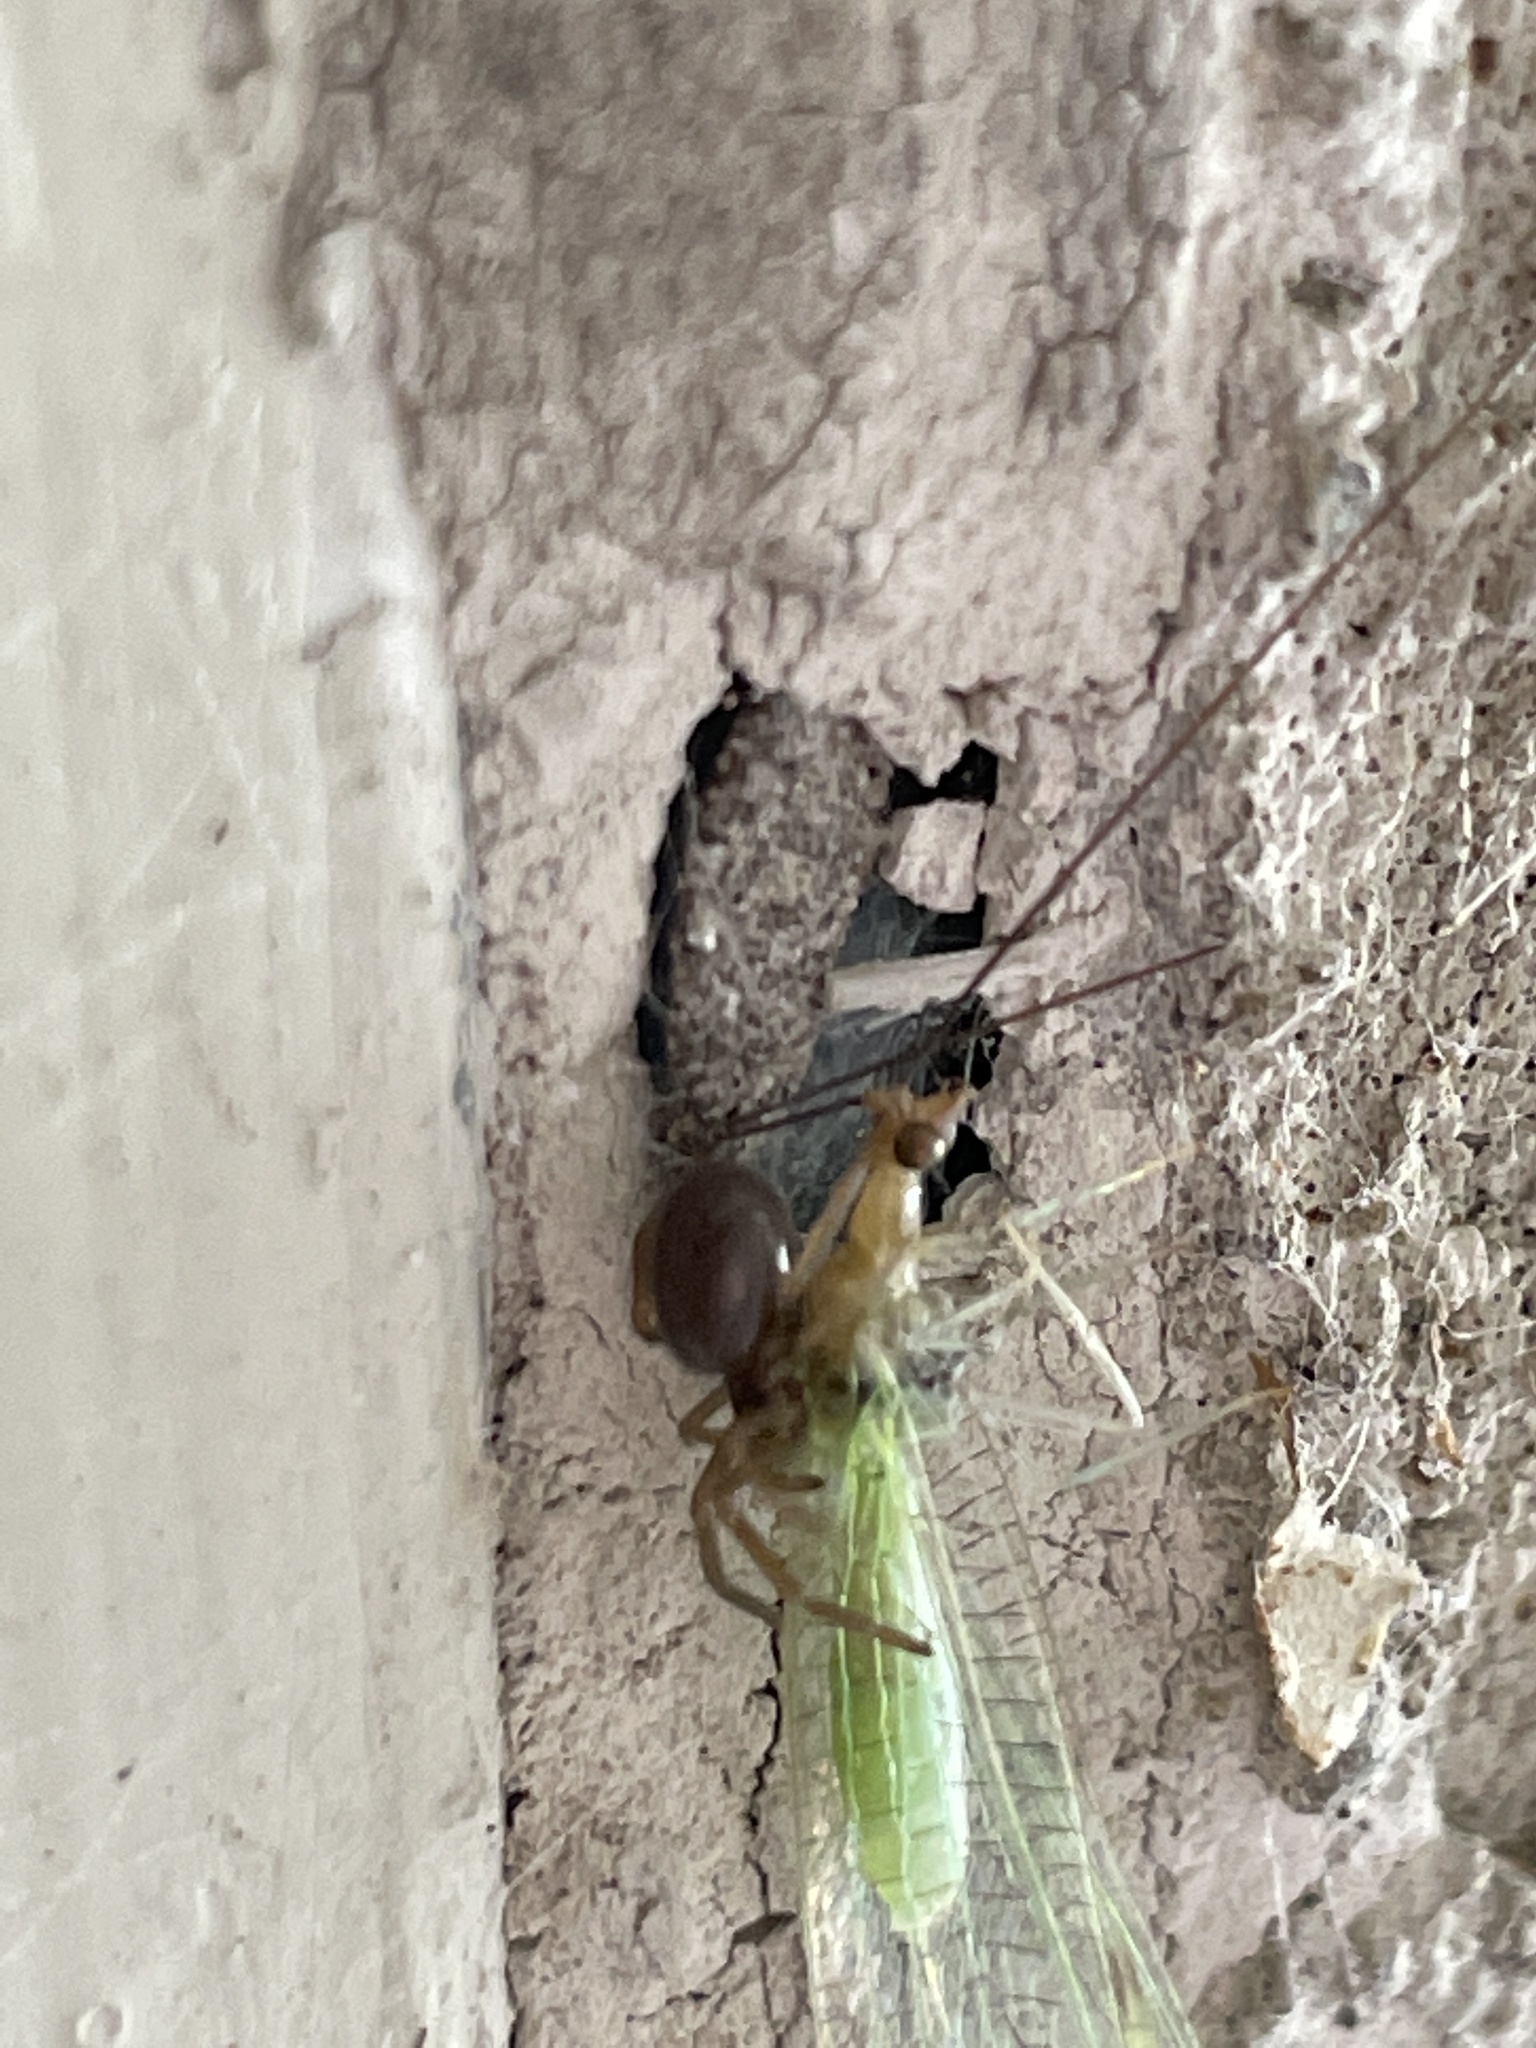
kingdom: Animalia
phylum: Arthropoda
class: Arachnida
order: Araneae
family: Filistatidae
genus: Kukulcania
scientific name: Kukulcania hibernalis
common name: Crevice weaver
